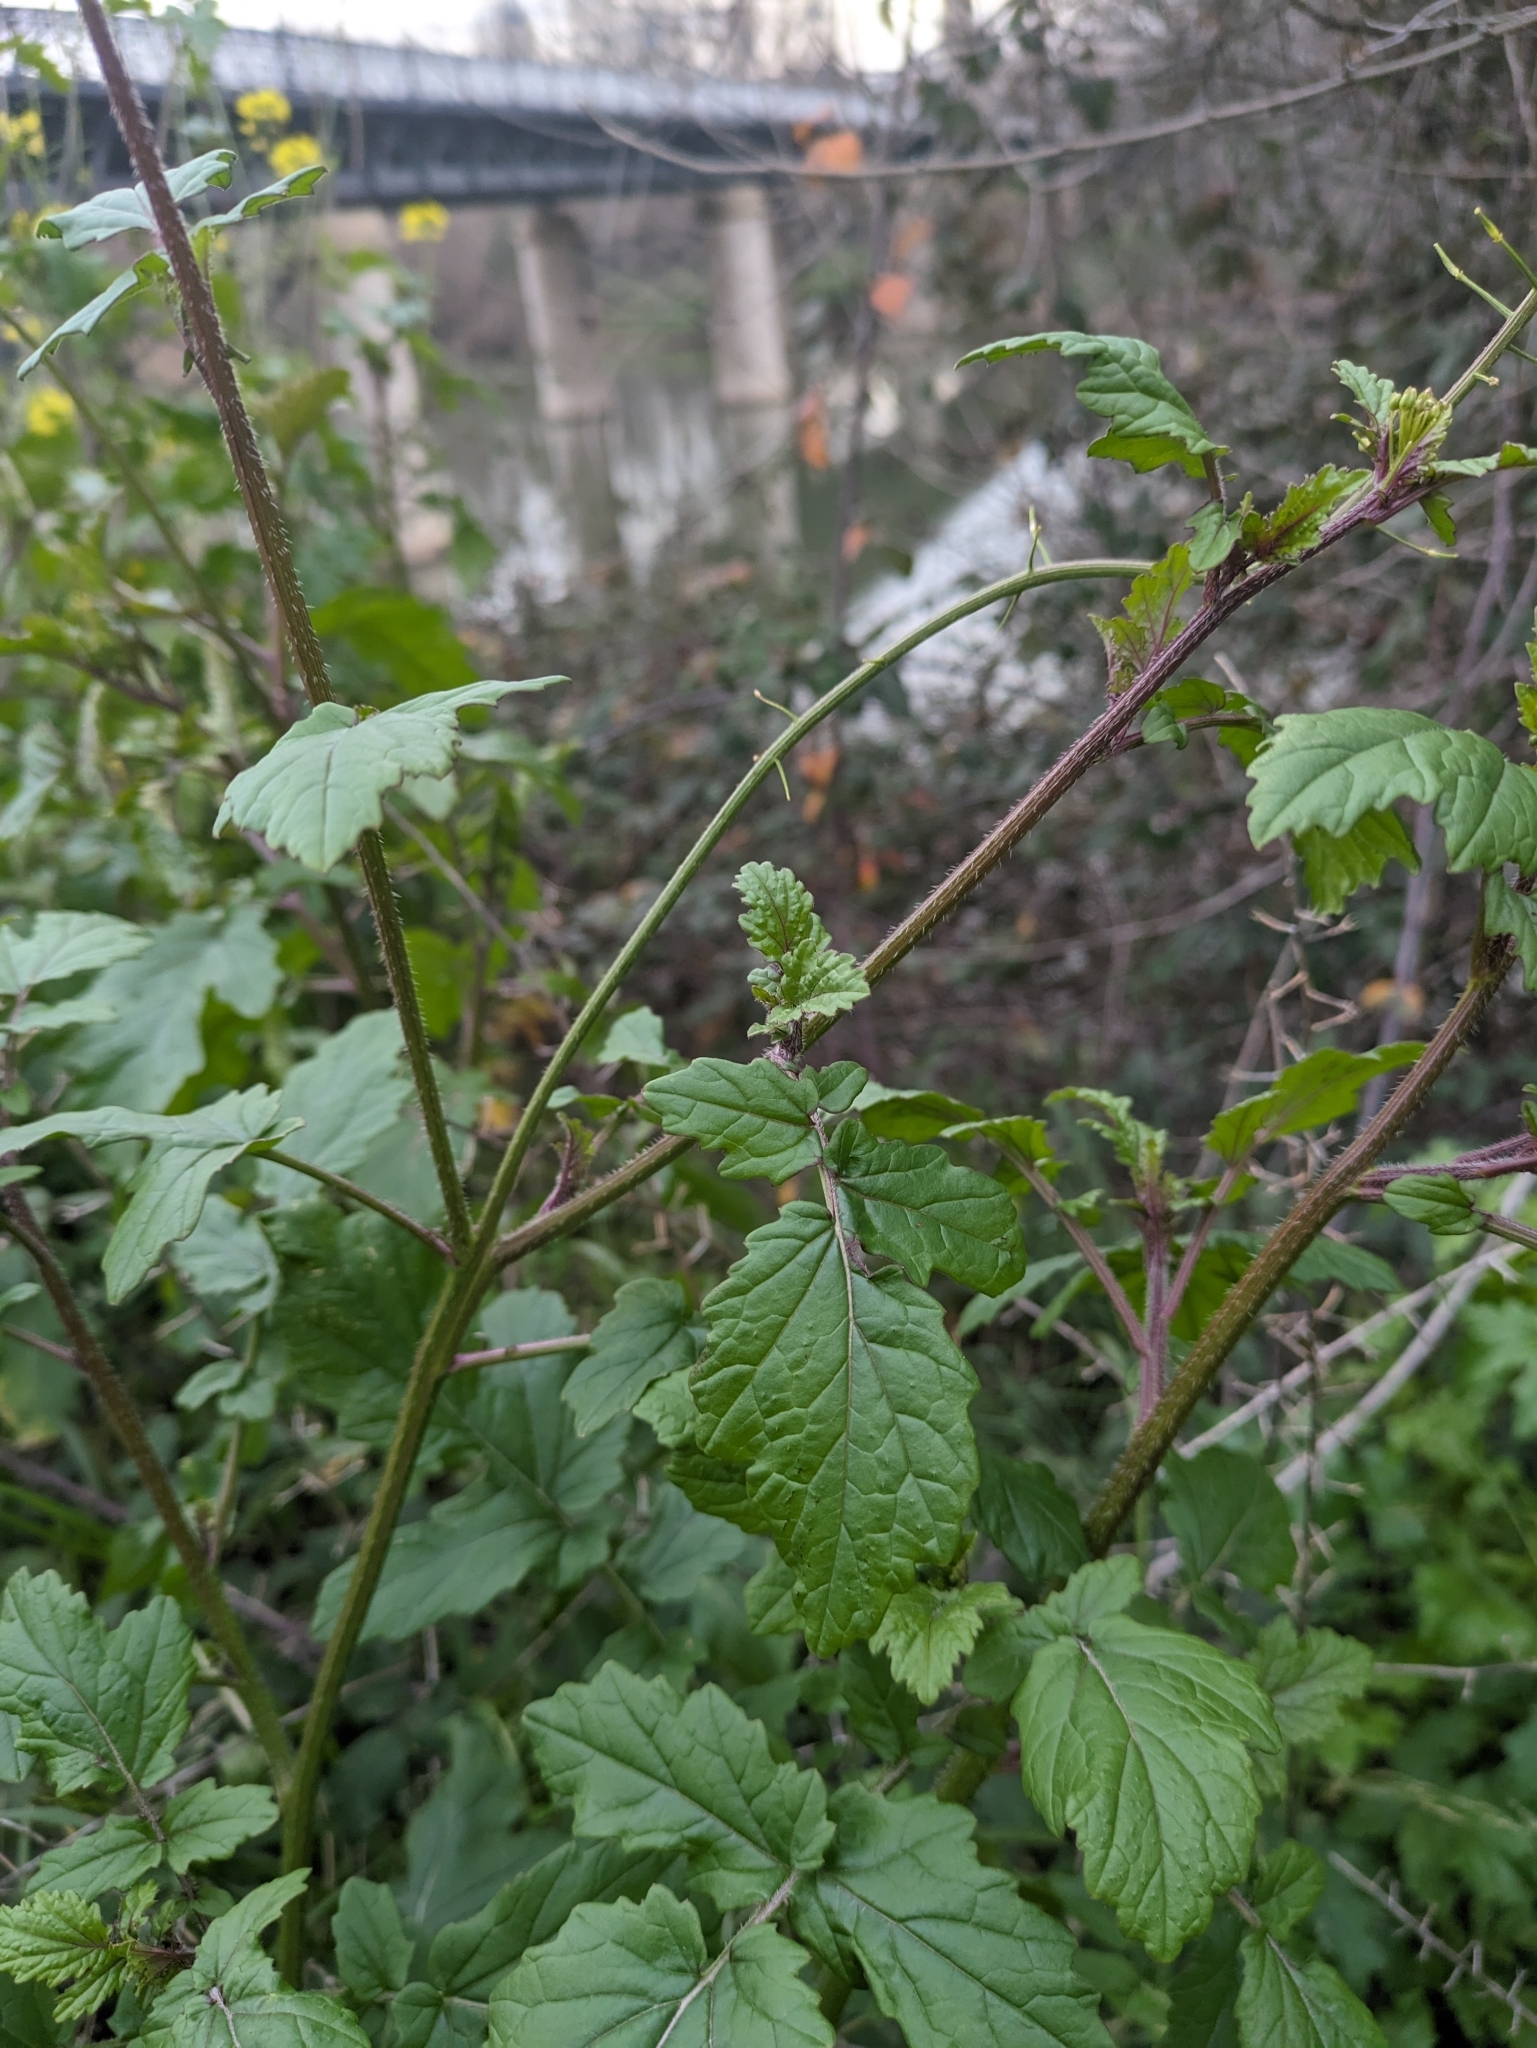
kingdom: Plantae
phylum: Tracheophyta
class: Magnoliopsida
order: Brassicales
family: Brassicaceae
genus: Sinapis
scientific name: Sinapis alba
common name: White mustard
